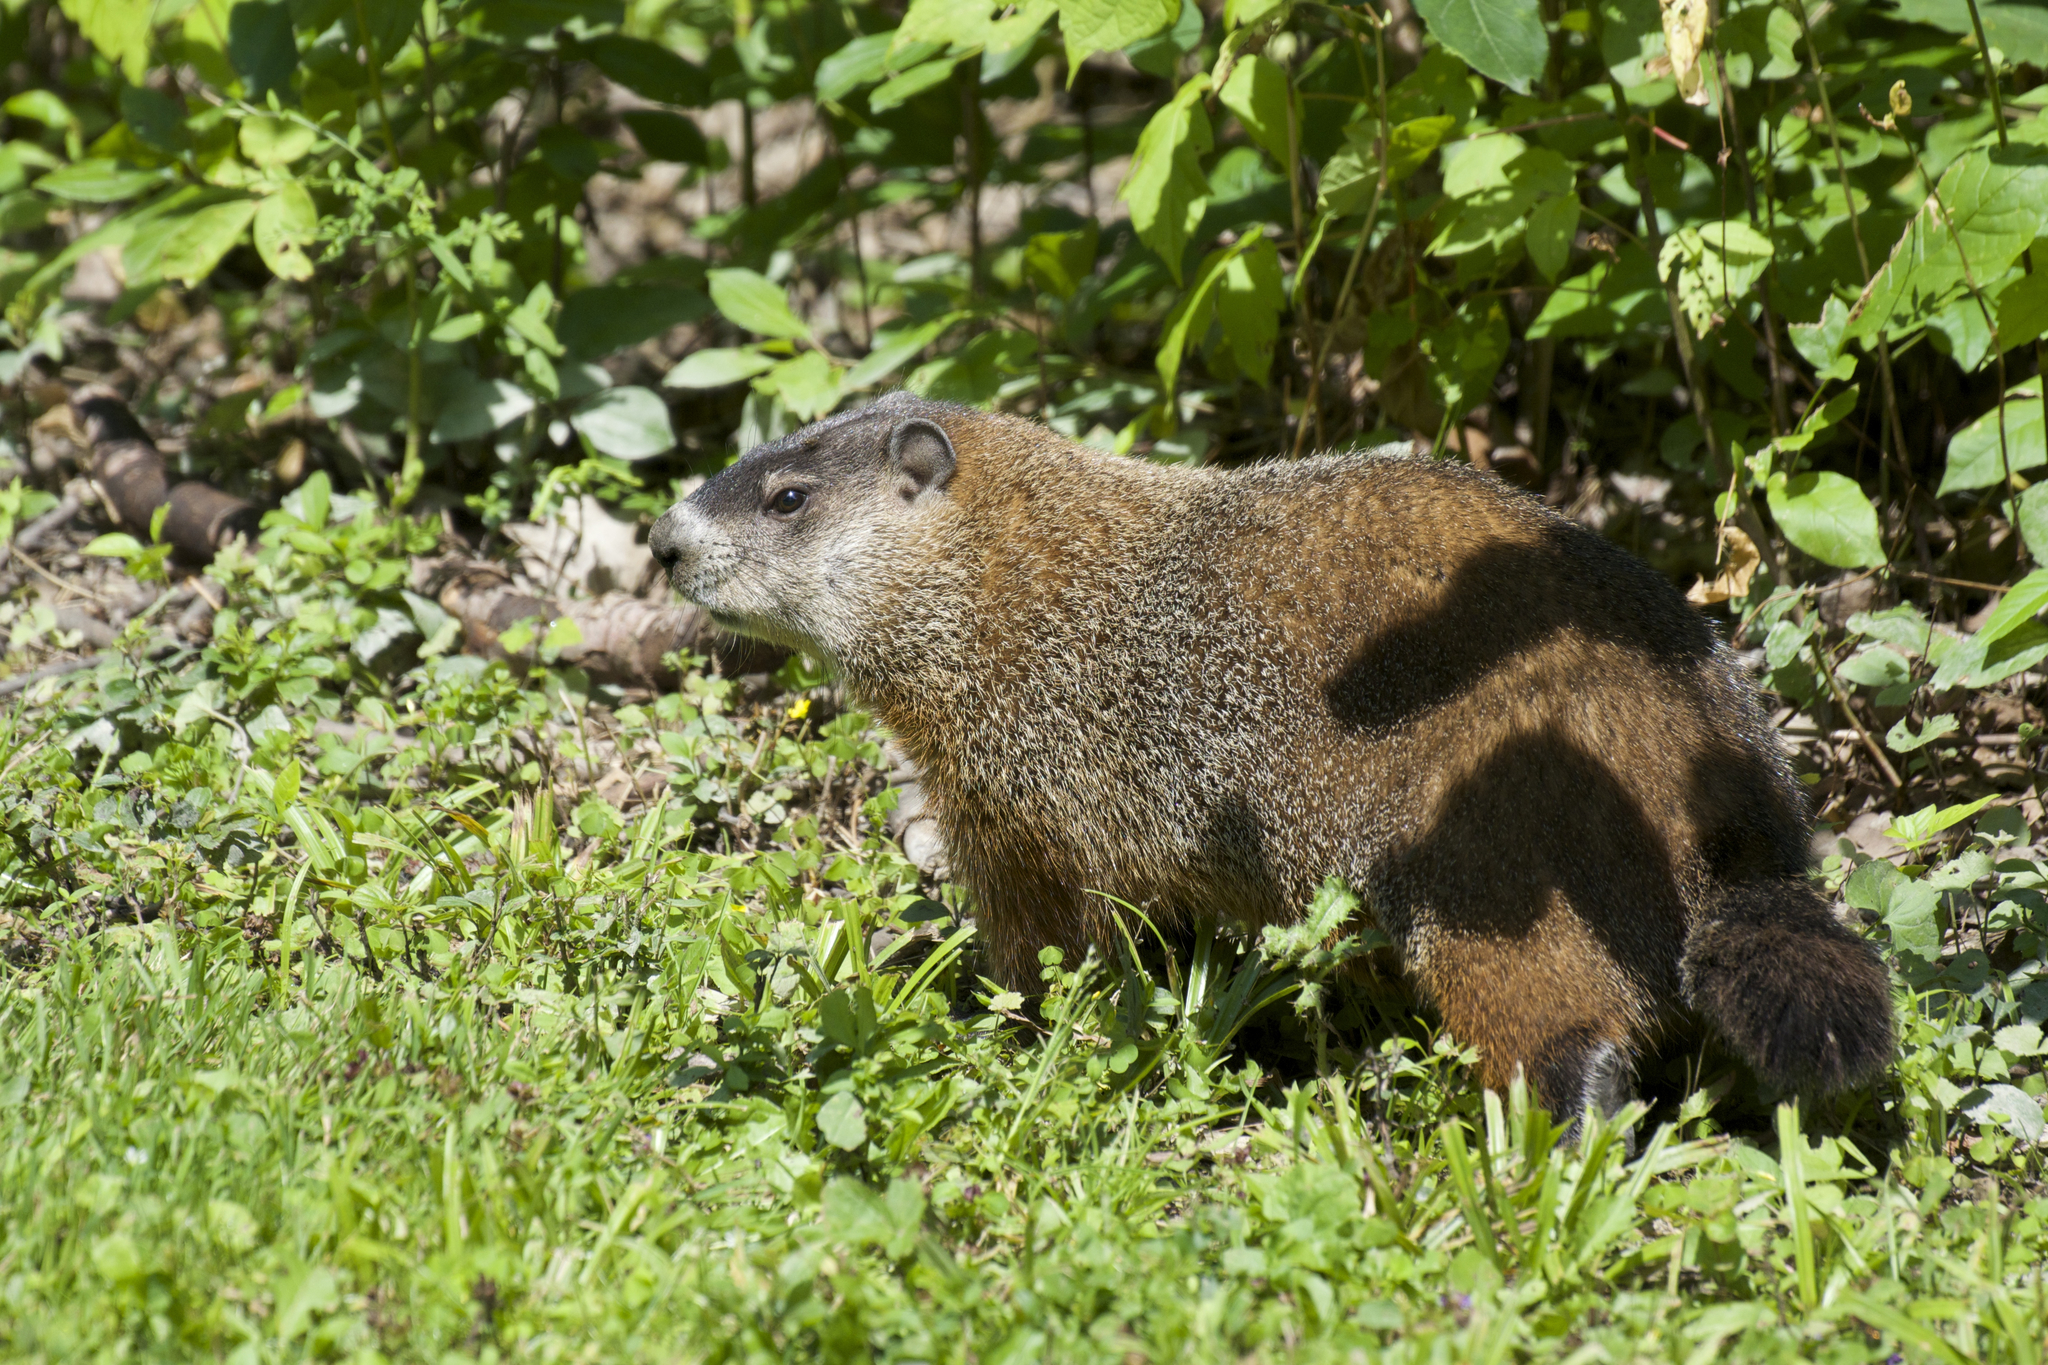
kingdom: Animalia
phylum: Chordata
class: Mammalia
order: Rodentia
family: Sciuridae
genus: Marmota
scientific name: Marmota monax
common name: Groundhog
